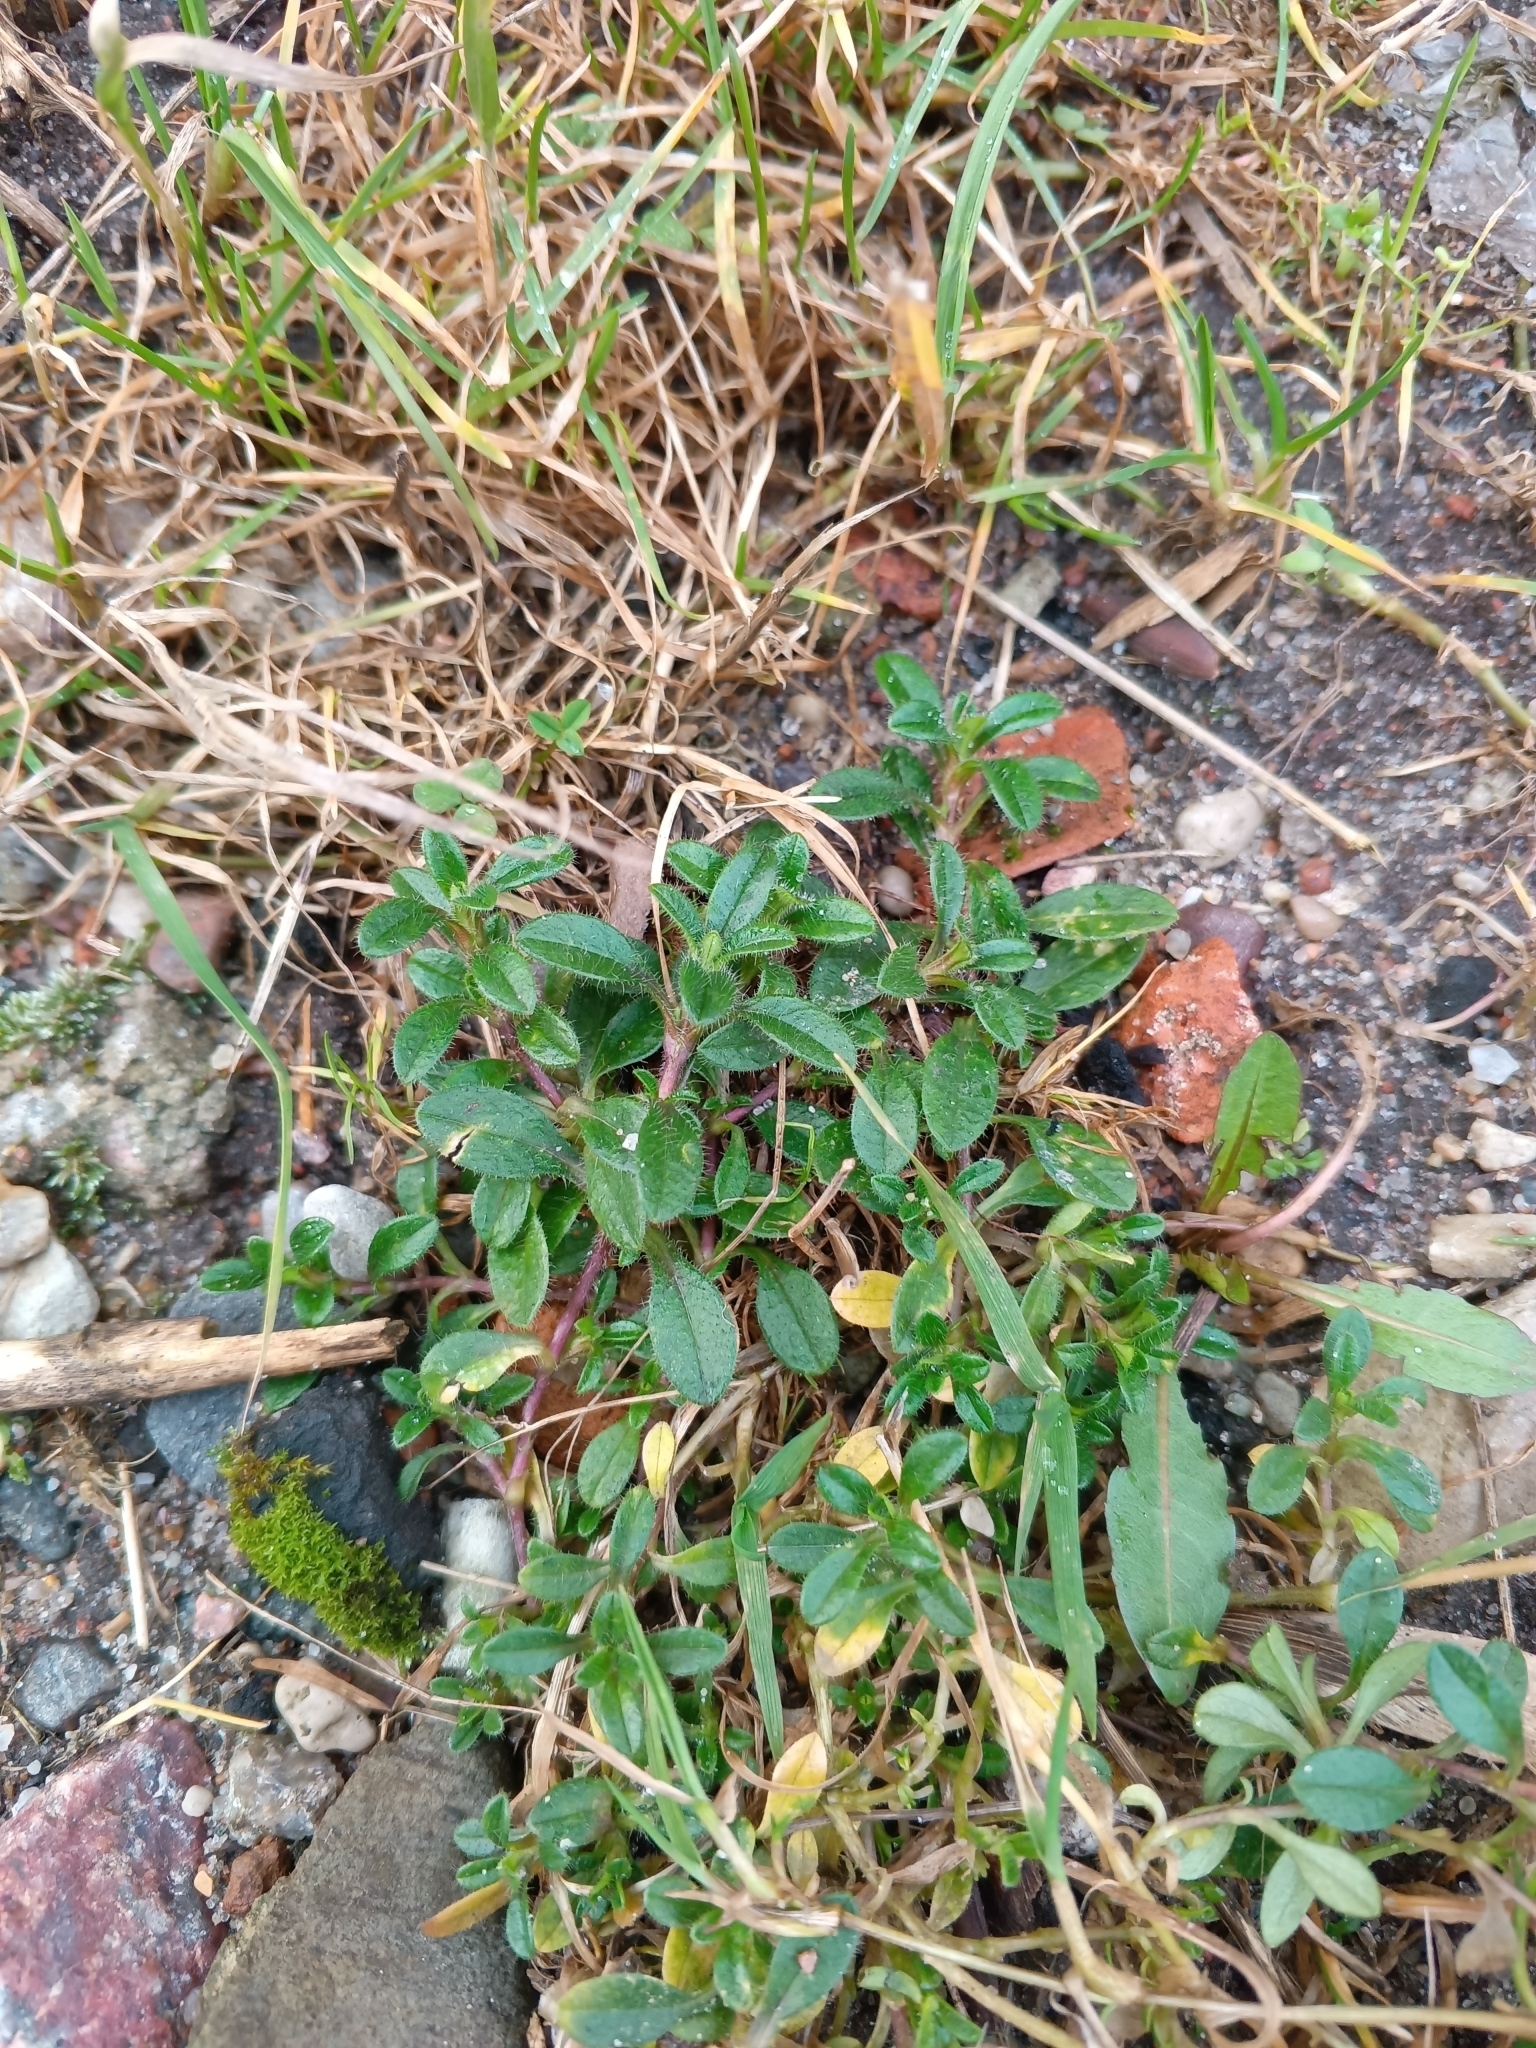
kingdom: Plantae
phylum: Tracheophyta
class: Magnoliopsida
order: Caryophyllales
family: Caryophyllaceae
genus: Cerastium
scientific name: Cerastium holosteoides
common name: Big chickweed
